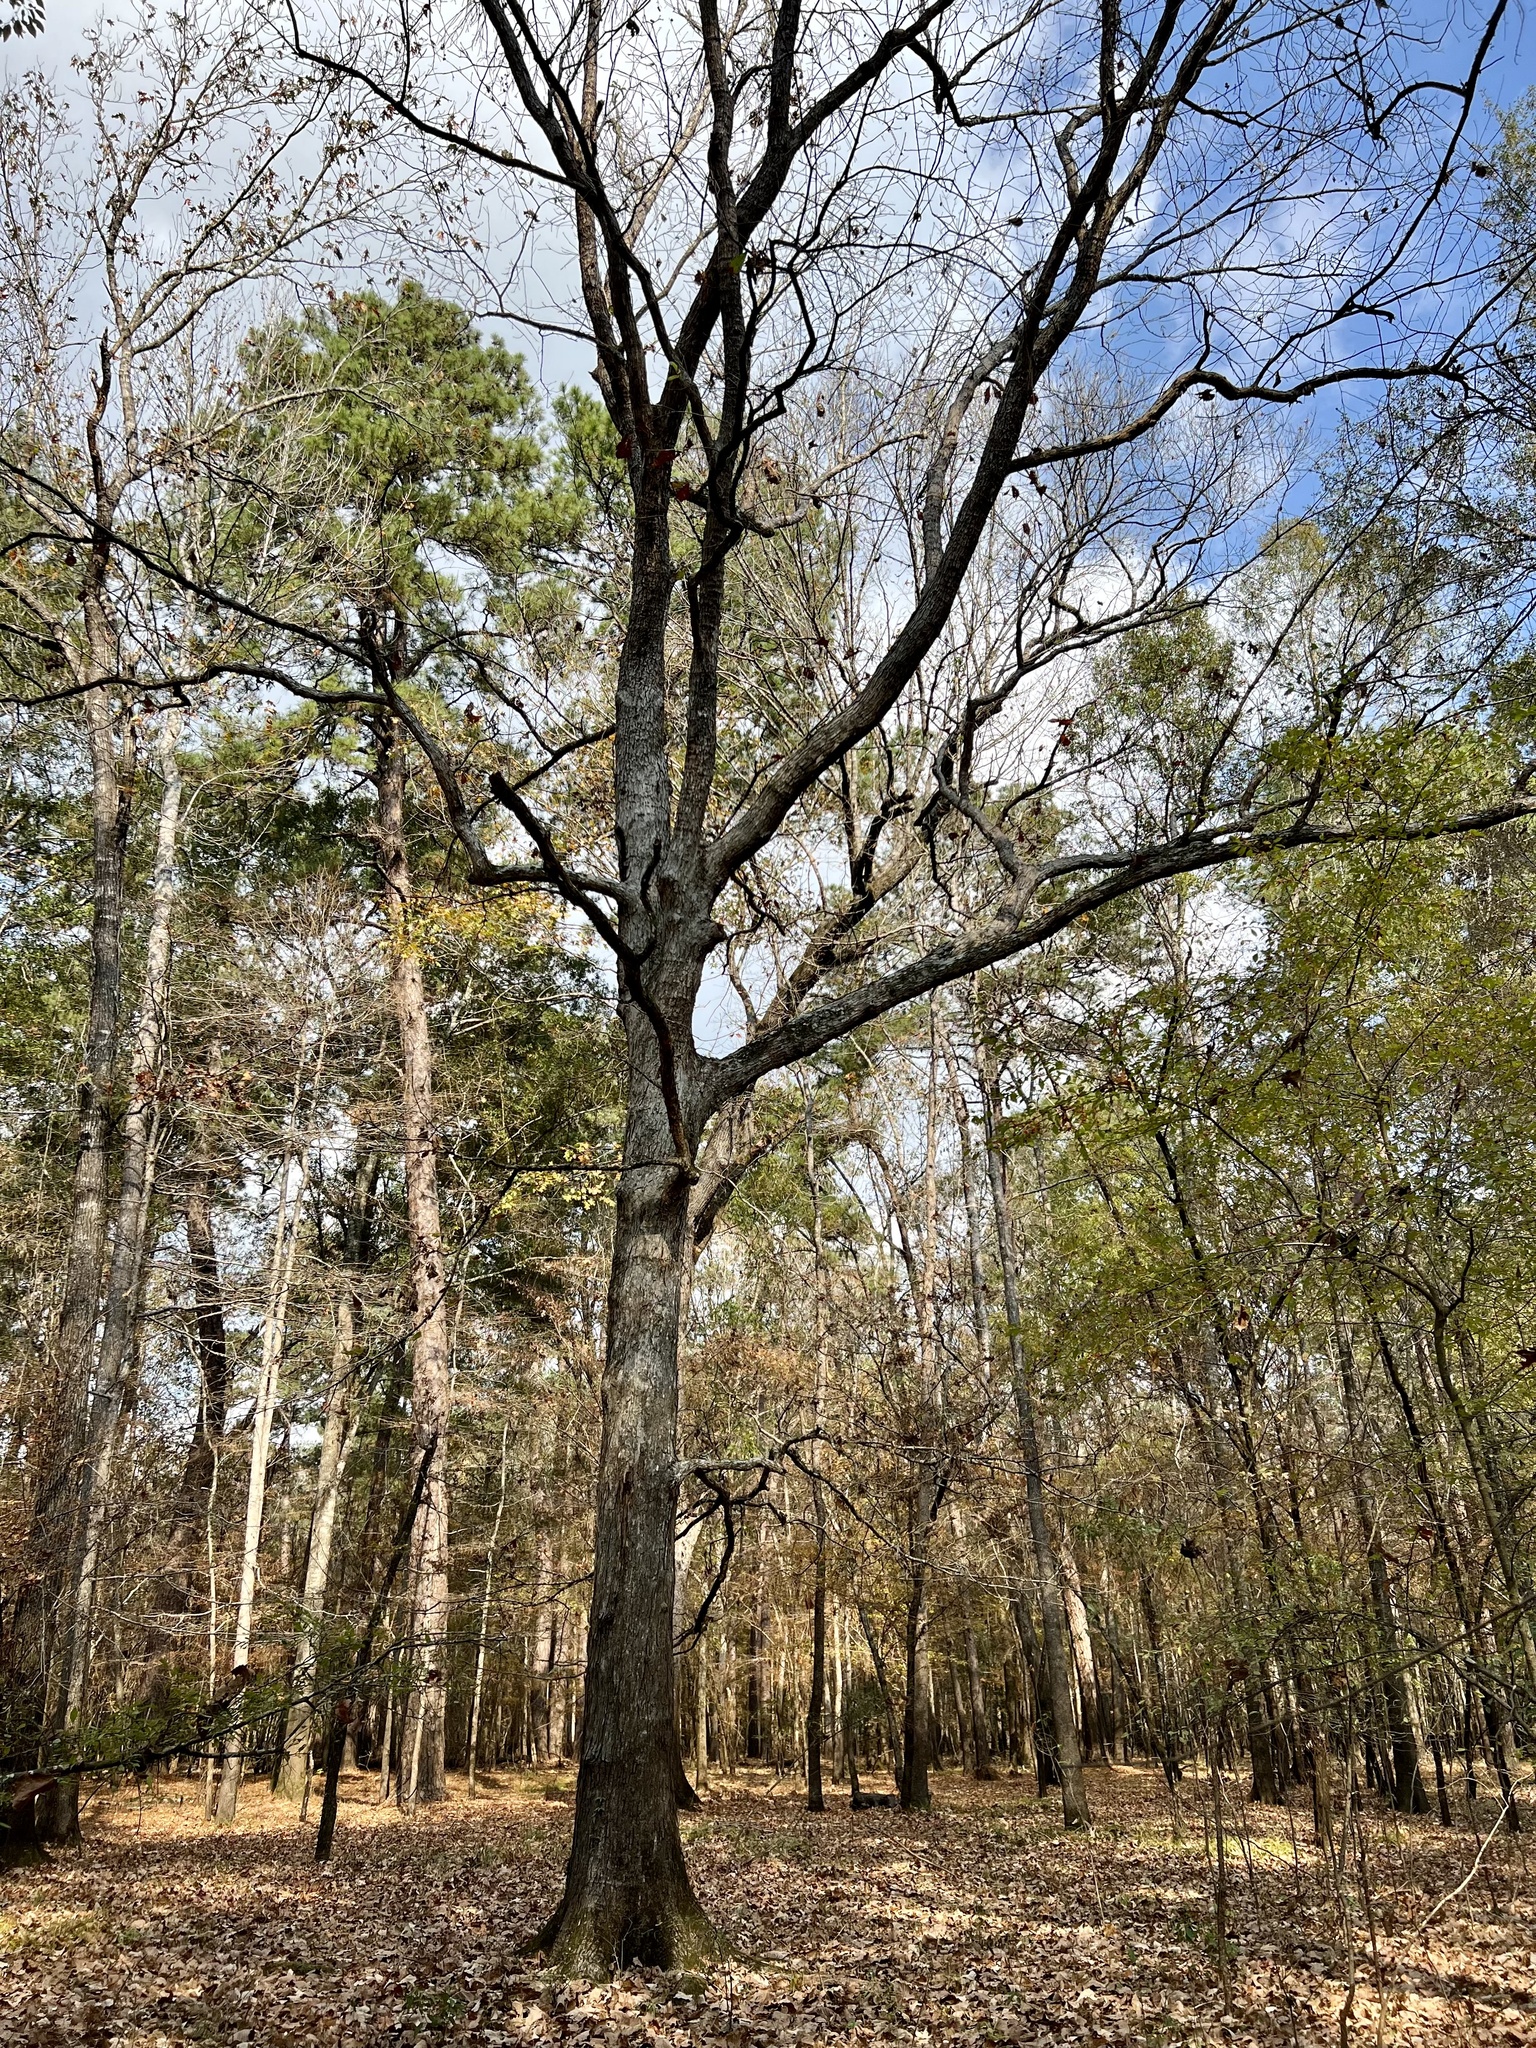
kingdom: Plantae
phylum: Tracheophyta
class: Magnoliopsida
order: Fagales
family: Fagaceae
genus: Quercus
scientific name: Quercus michauxii
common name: Swamp chestnut oak
